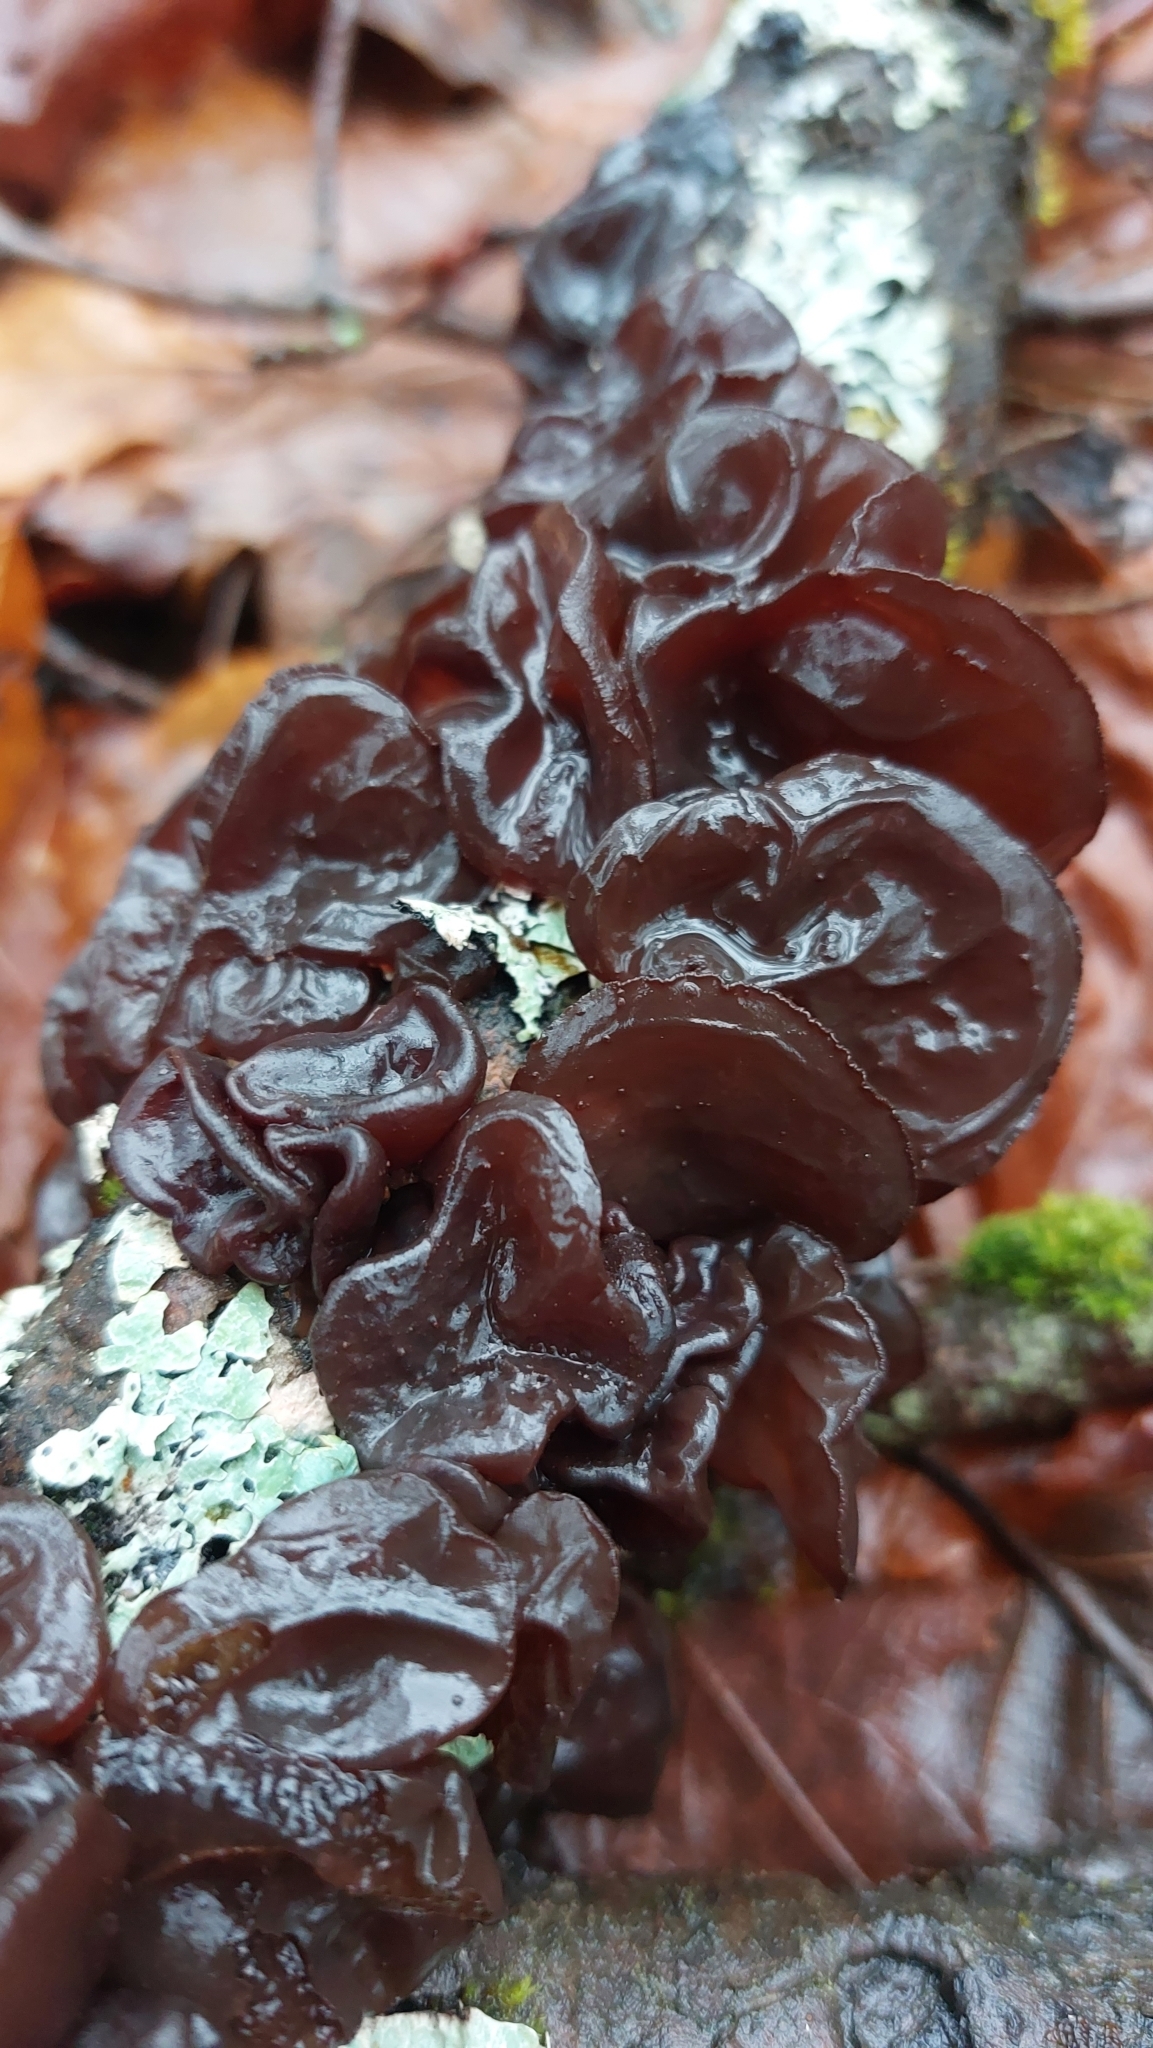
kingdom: Fungi
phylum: Basidiomycota
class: Agaricomycetes
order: Auriculariales
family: Auriculariaceae
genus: Exidia
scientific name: Exidia
